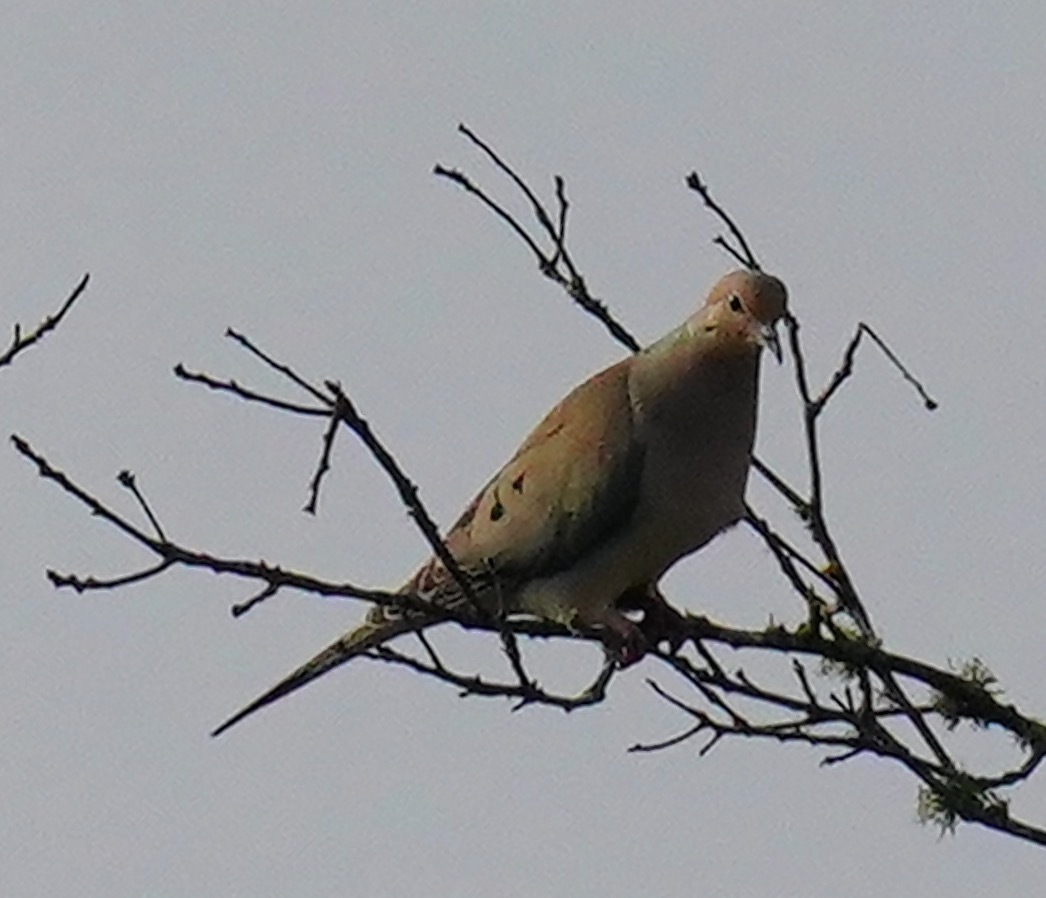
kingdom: Animalia
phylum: Chordata
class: Aves
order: Columbiformes
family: Columbidae
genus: Zenaida
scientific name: Zenaida macroura
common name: Mourning dove
